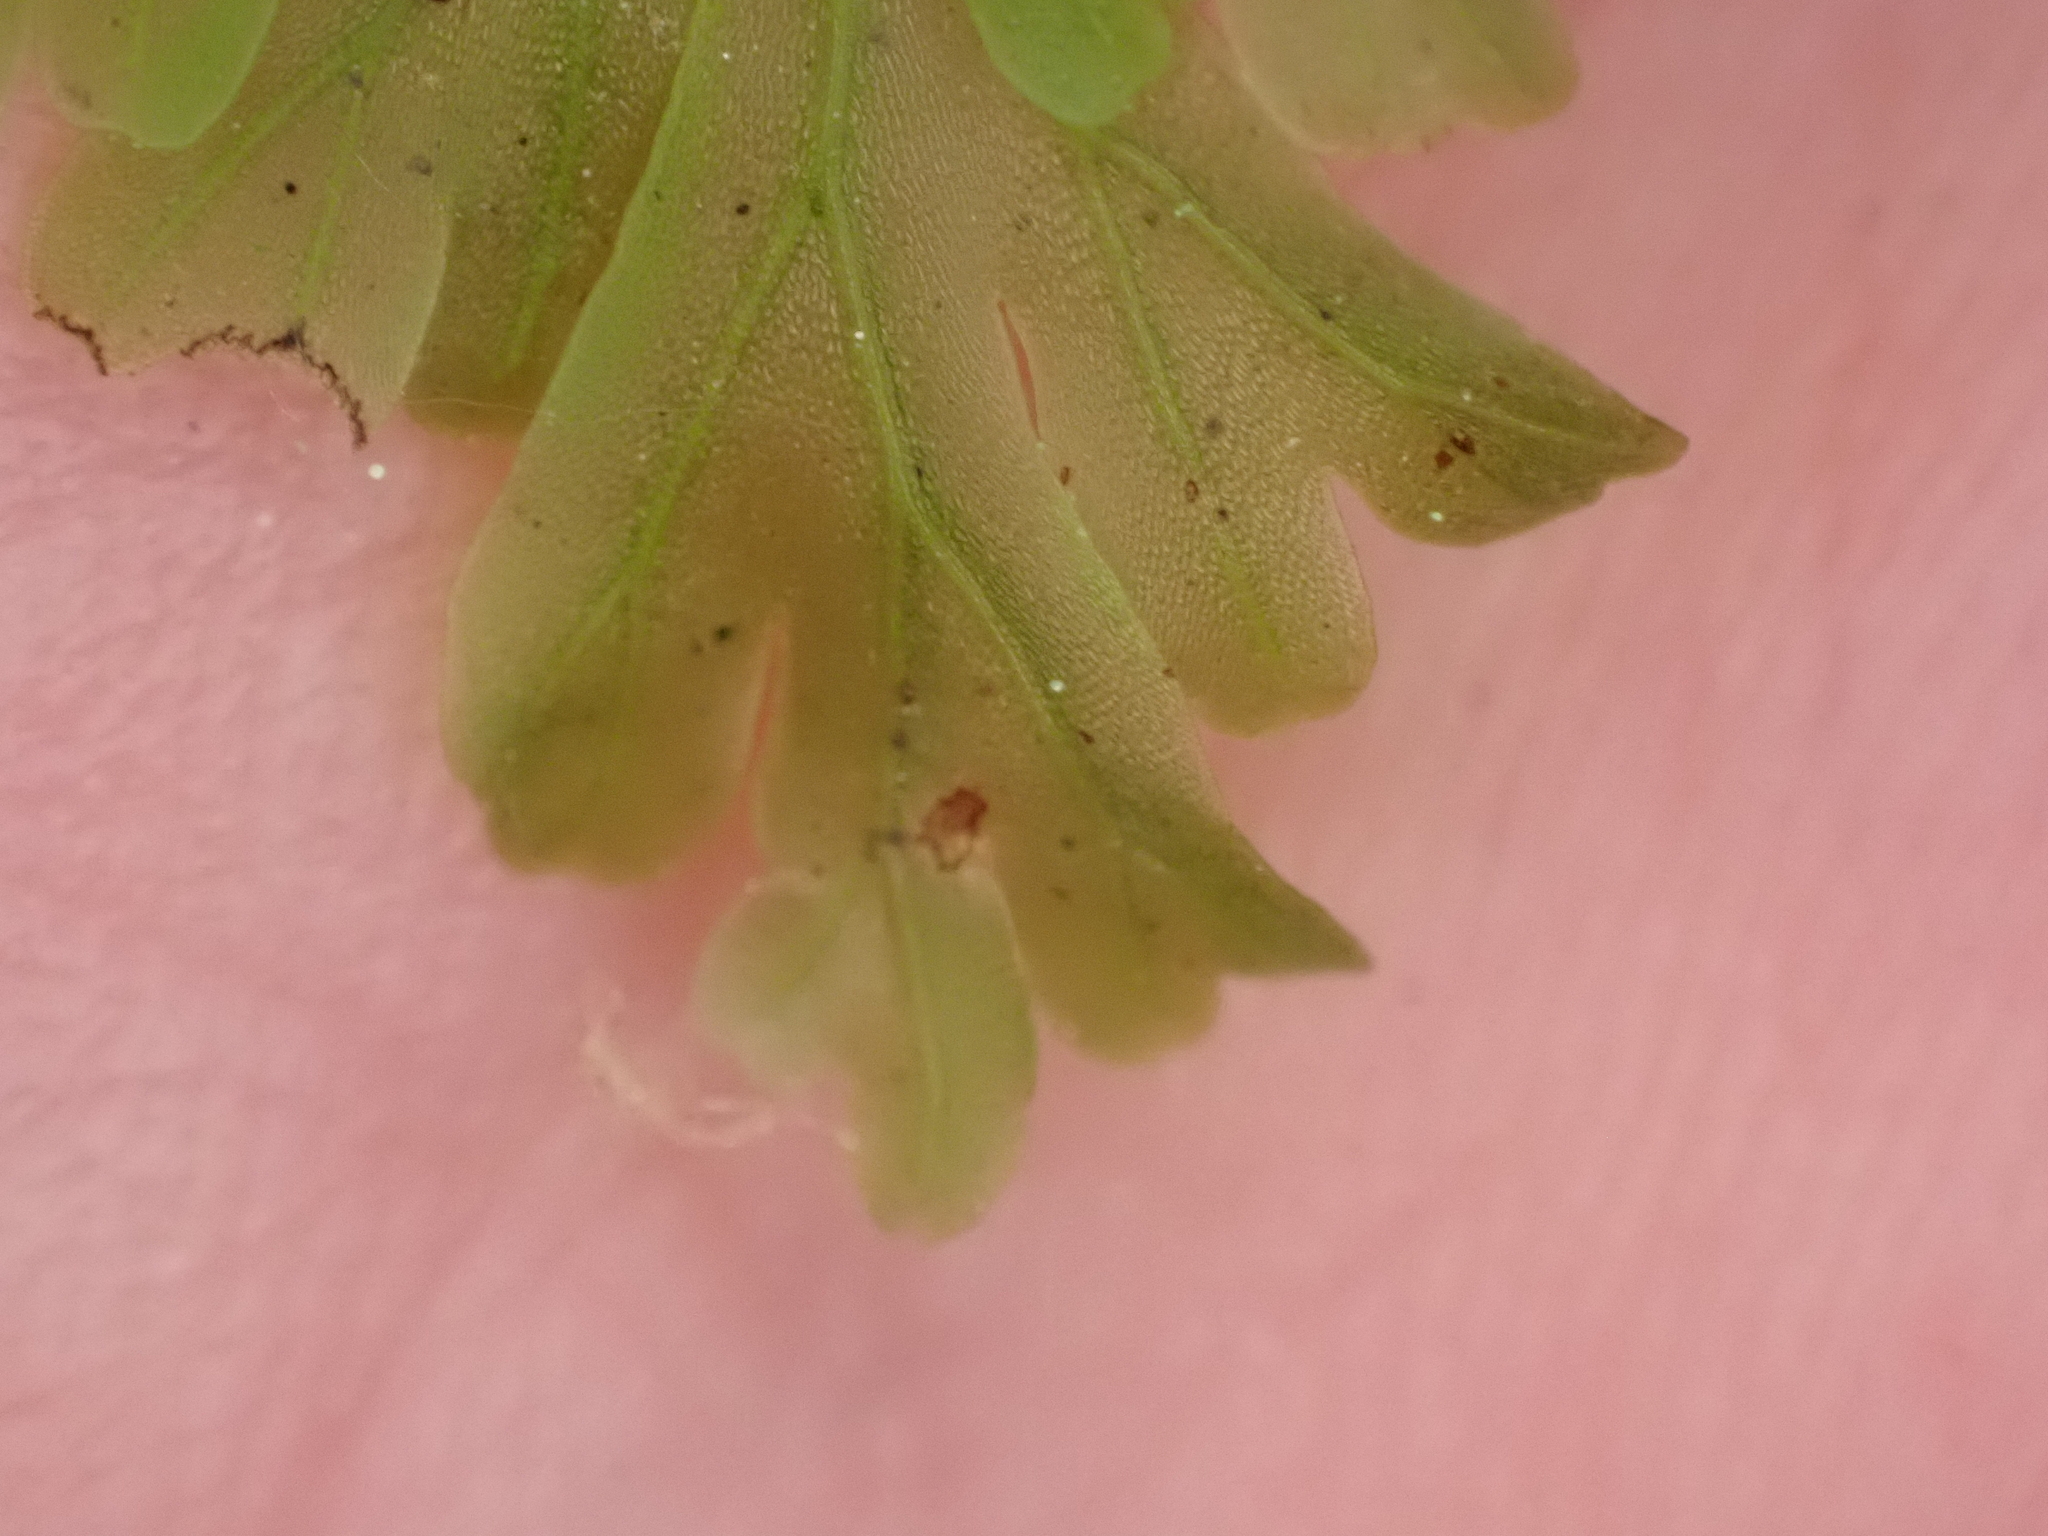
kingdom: Plantae
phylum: Tracheophyta
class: Polypodiopsida
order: Hymenophyllales
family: Hymenophyllaceae
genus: Hymenophyllum
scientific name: Hymenophyllum flabellatum
